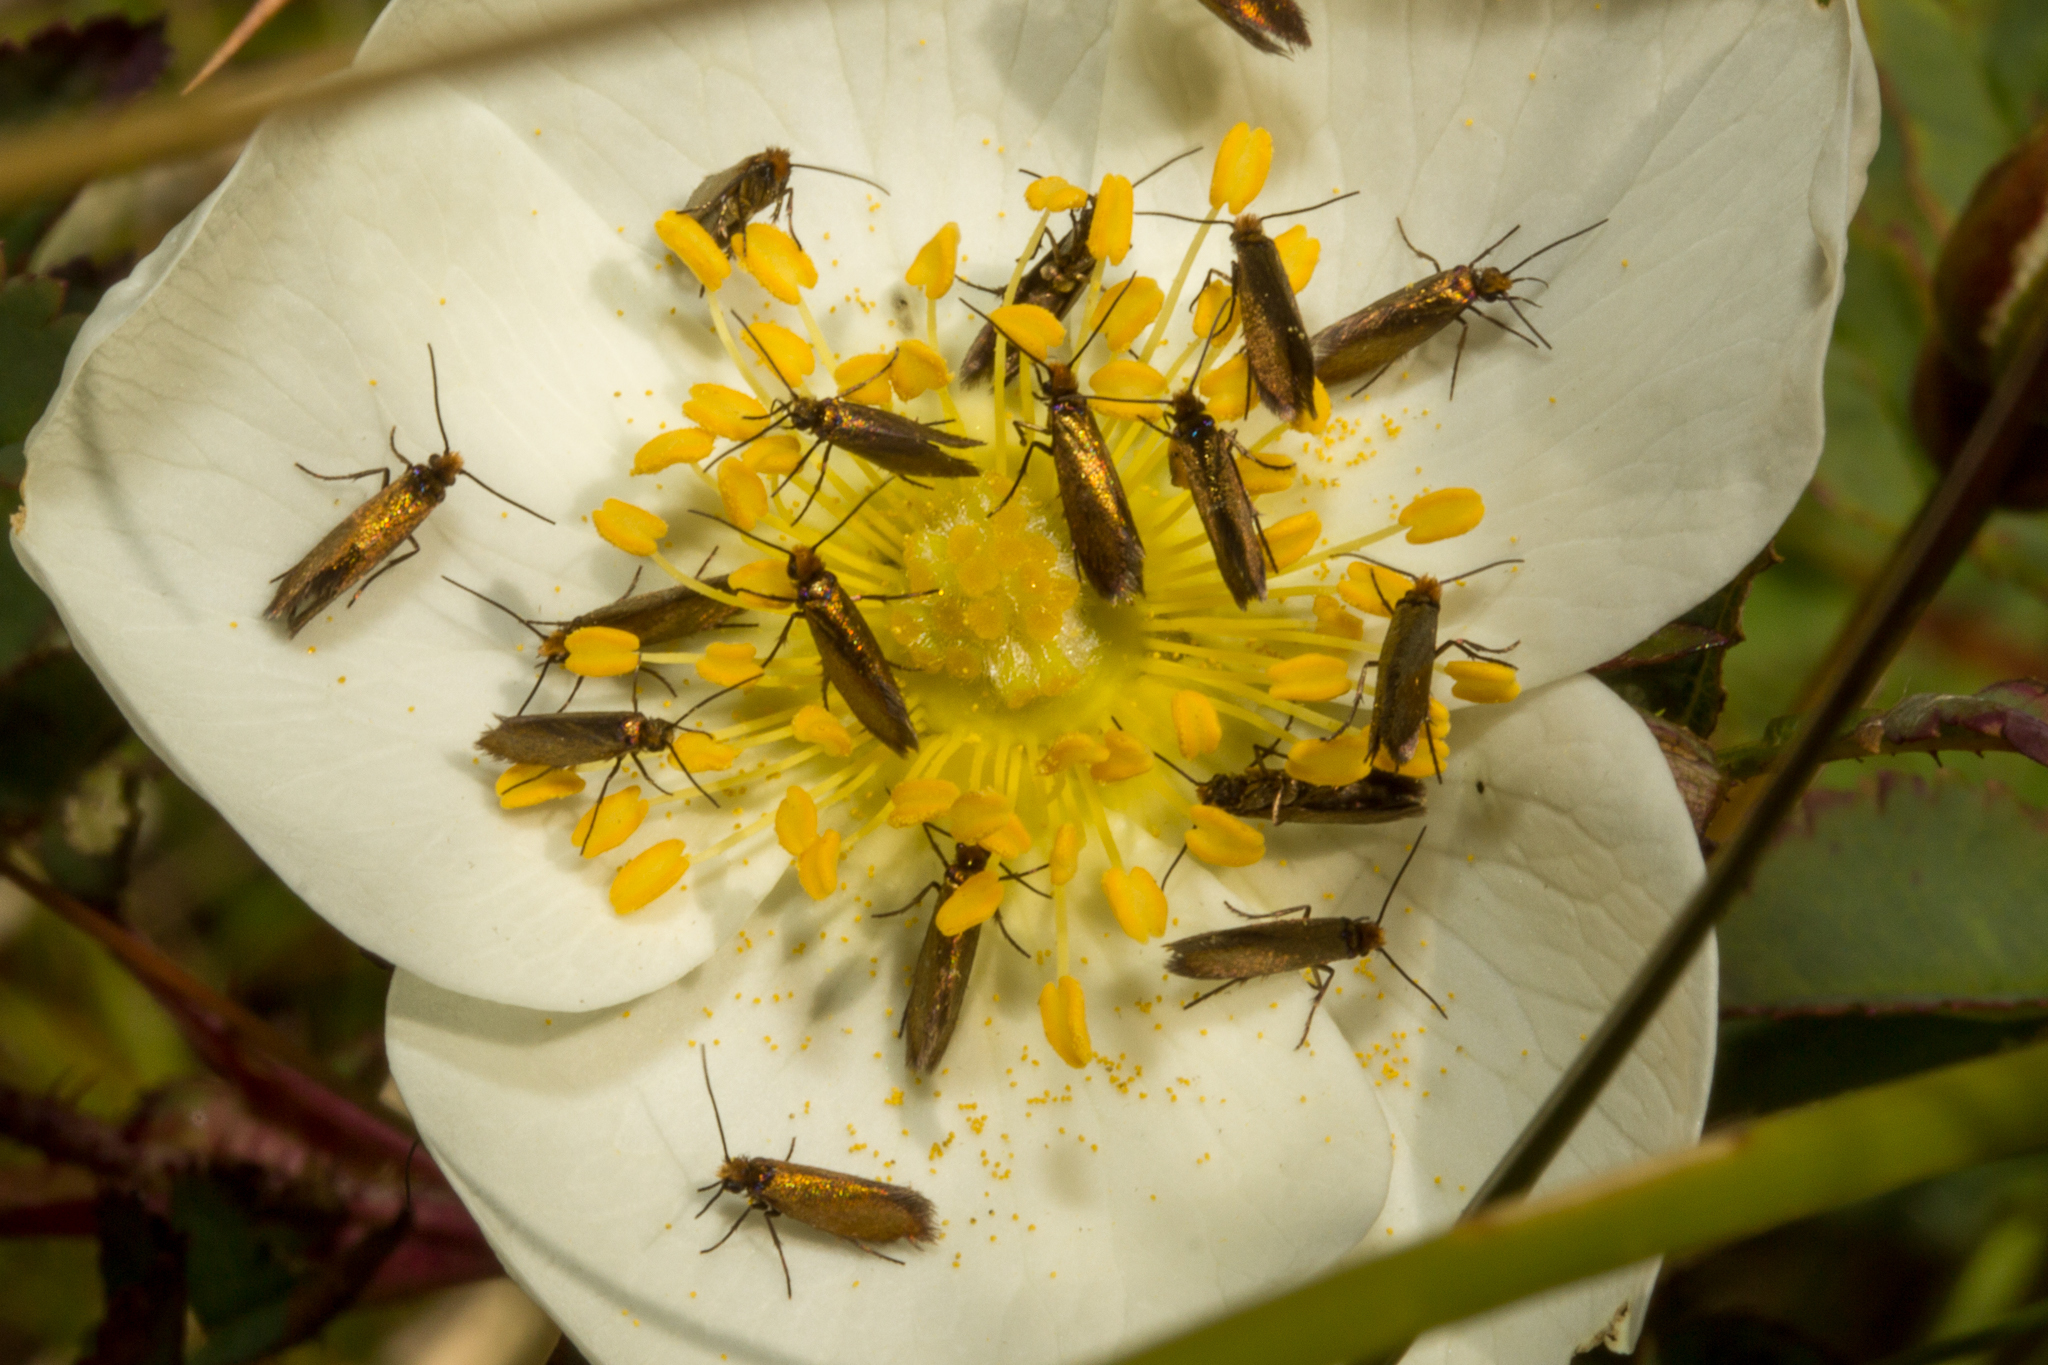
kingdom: Animalia
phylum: Arthropoda
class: Insecta
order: Lepidoptera
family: Micropterigidae
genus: Micropterix
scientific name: Micropterix calthella
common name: Plain gold
